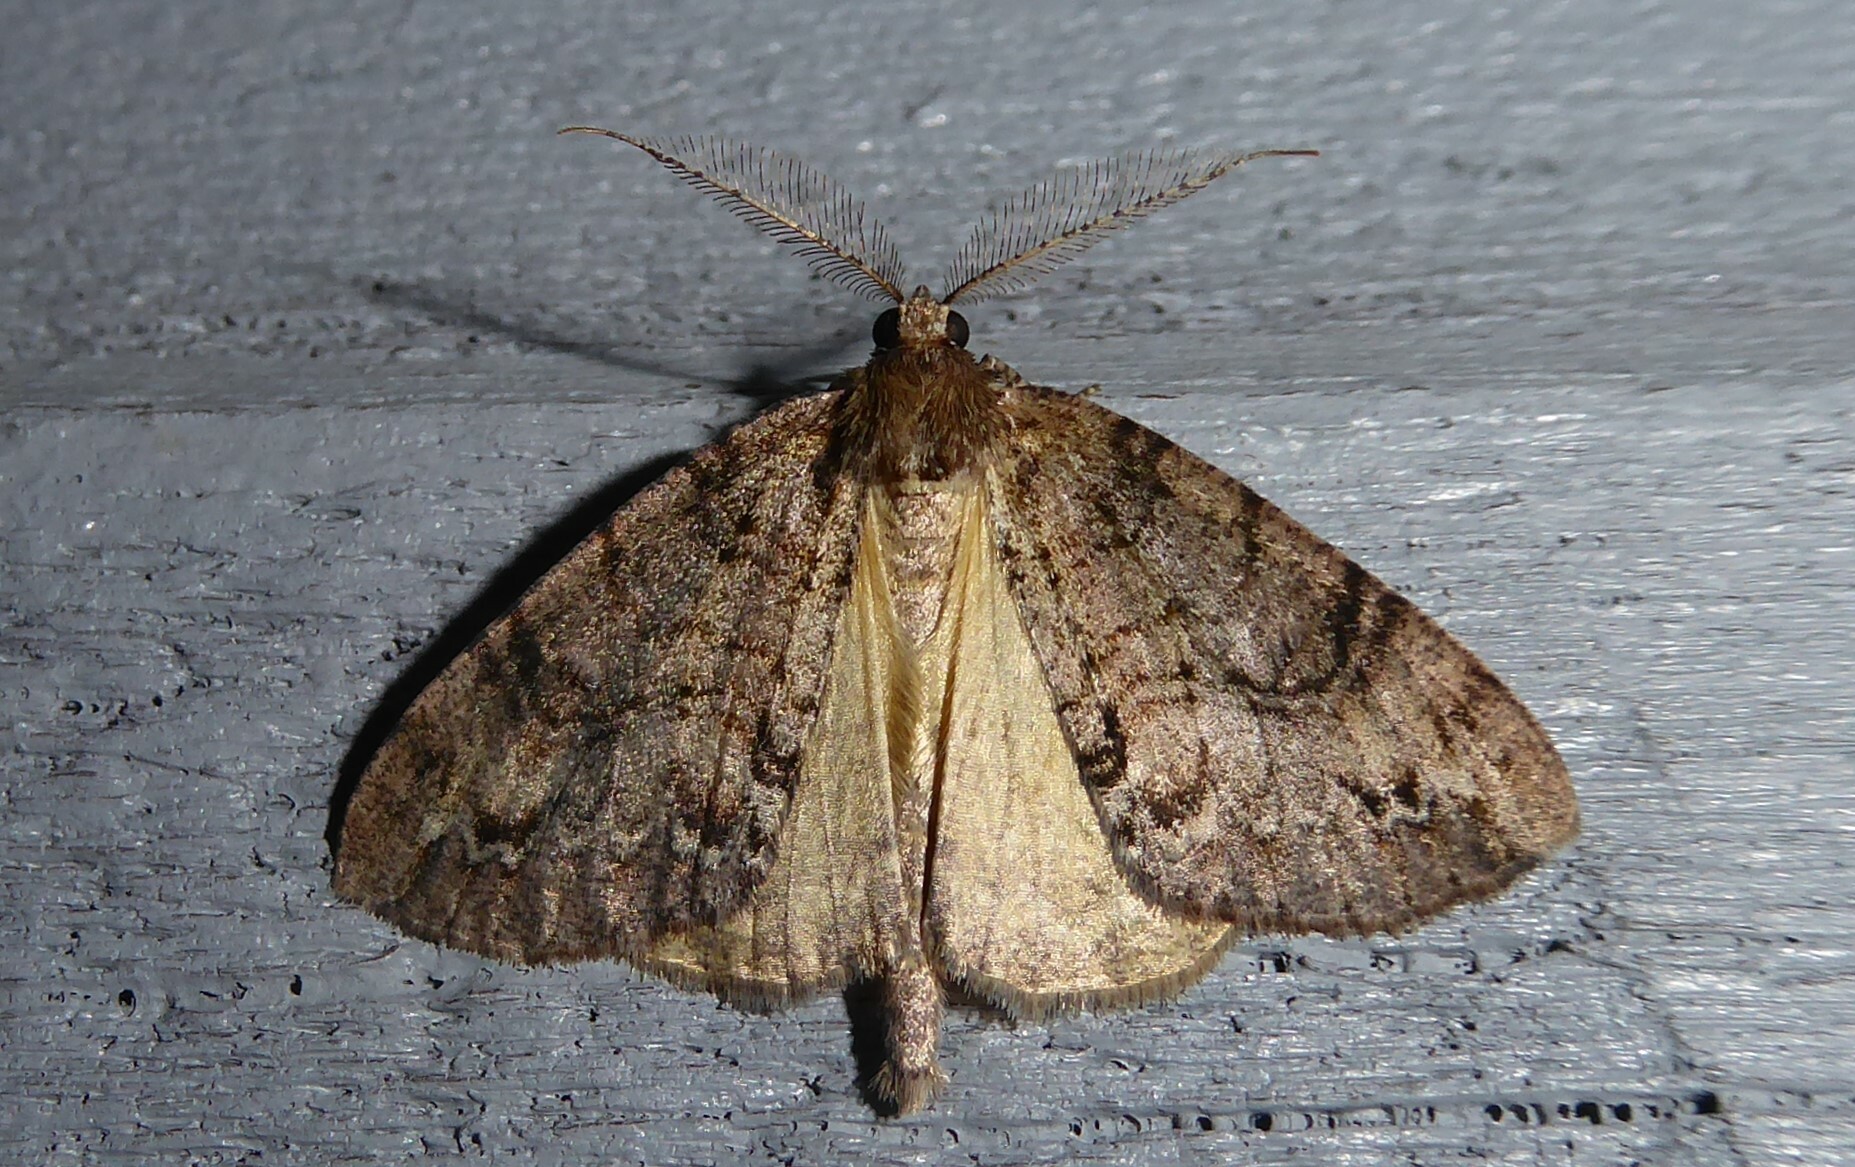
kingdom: Animalia
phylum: Arthropoda
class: Insecta
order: Lepidoptera
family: Geometridae
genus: Pseudocoremia
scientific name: Pseudocoremia suavis
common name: Common forest looper
